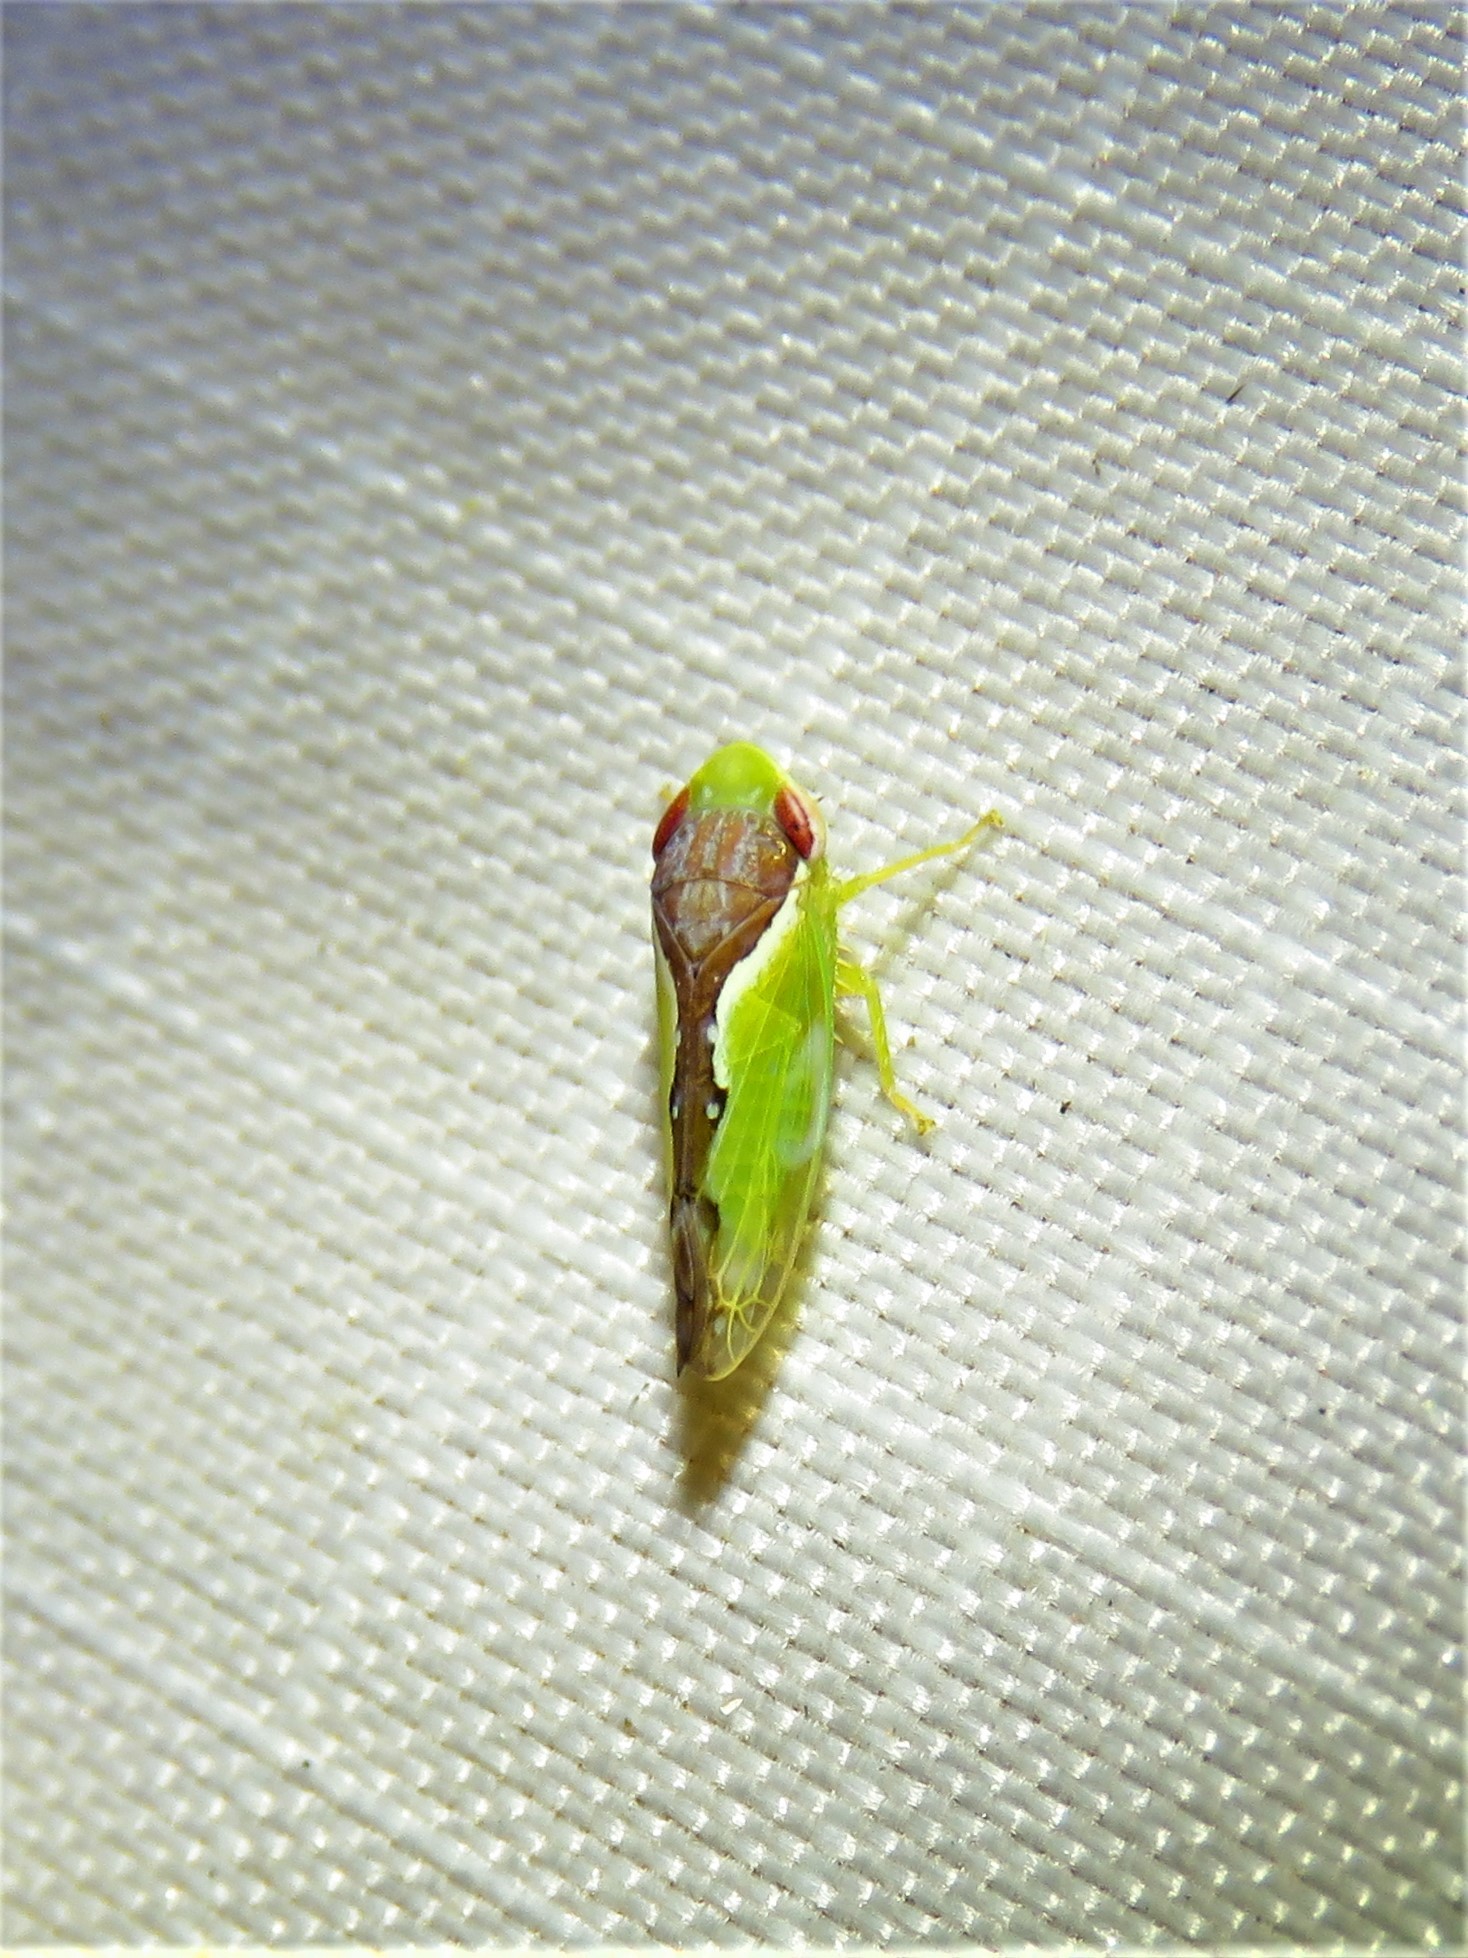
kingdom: Animalia
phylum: Arthropoda
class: Insecta
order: Hemiptera
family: Cicadellidae
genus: Omansobara ing
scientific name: Omansobara ing Omansobara palliolata
